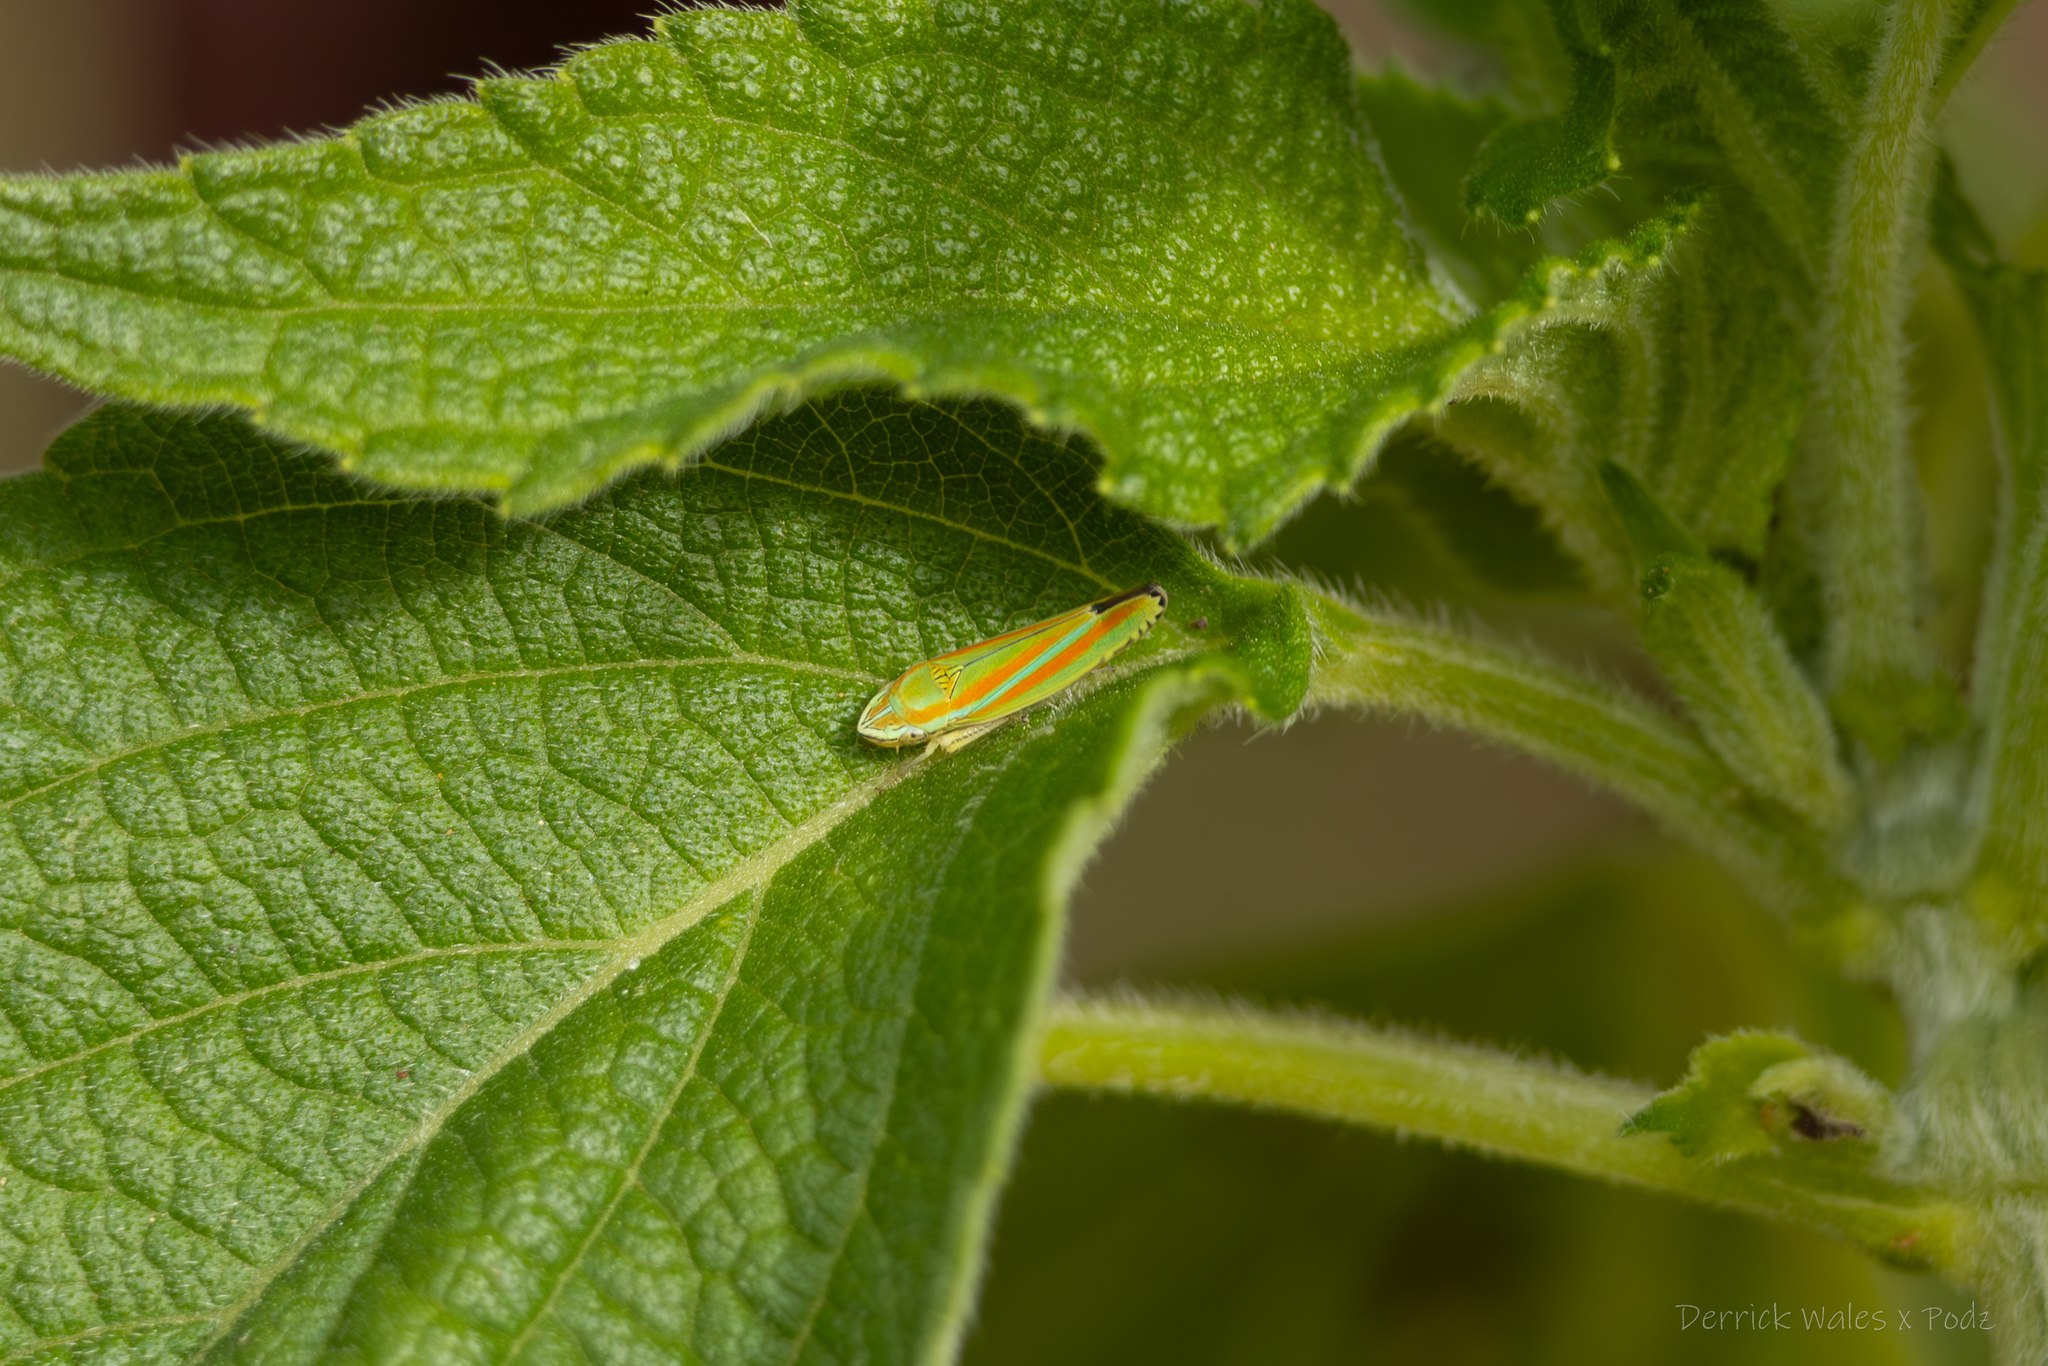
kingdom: Animalia
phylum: Arthropoda
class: Insecta
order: Hemiptera
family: Cicadellidae
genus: Graphocephala
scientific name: Graphocephala versuta
